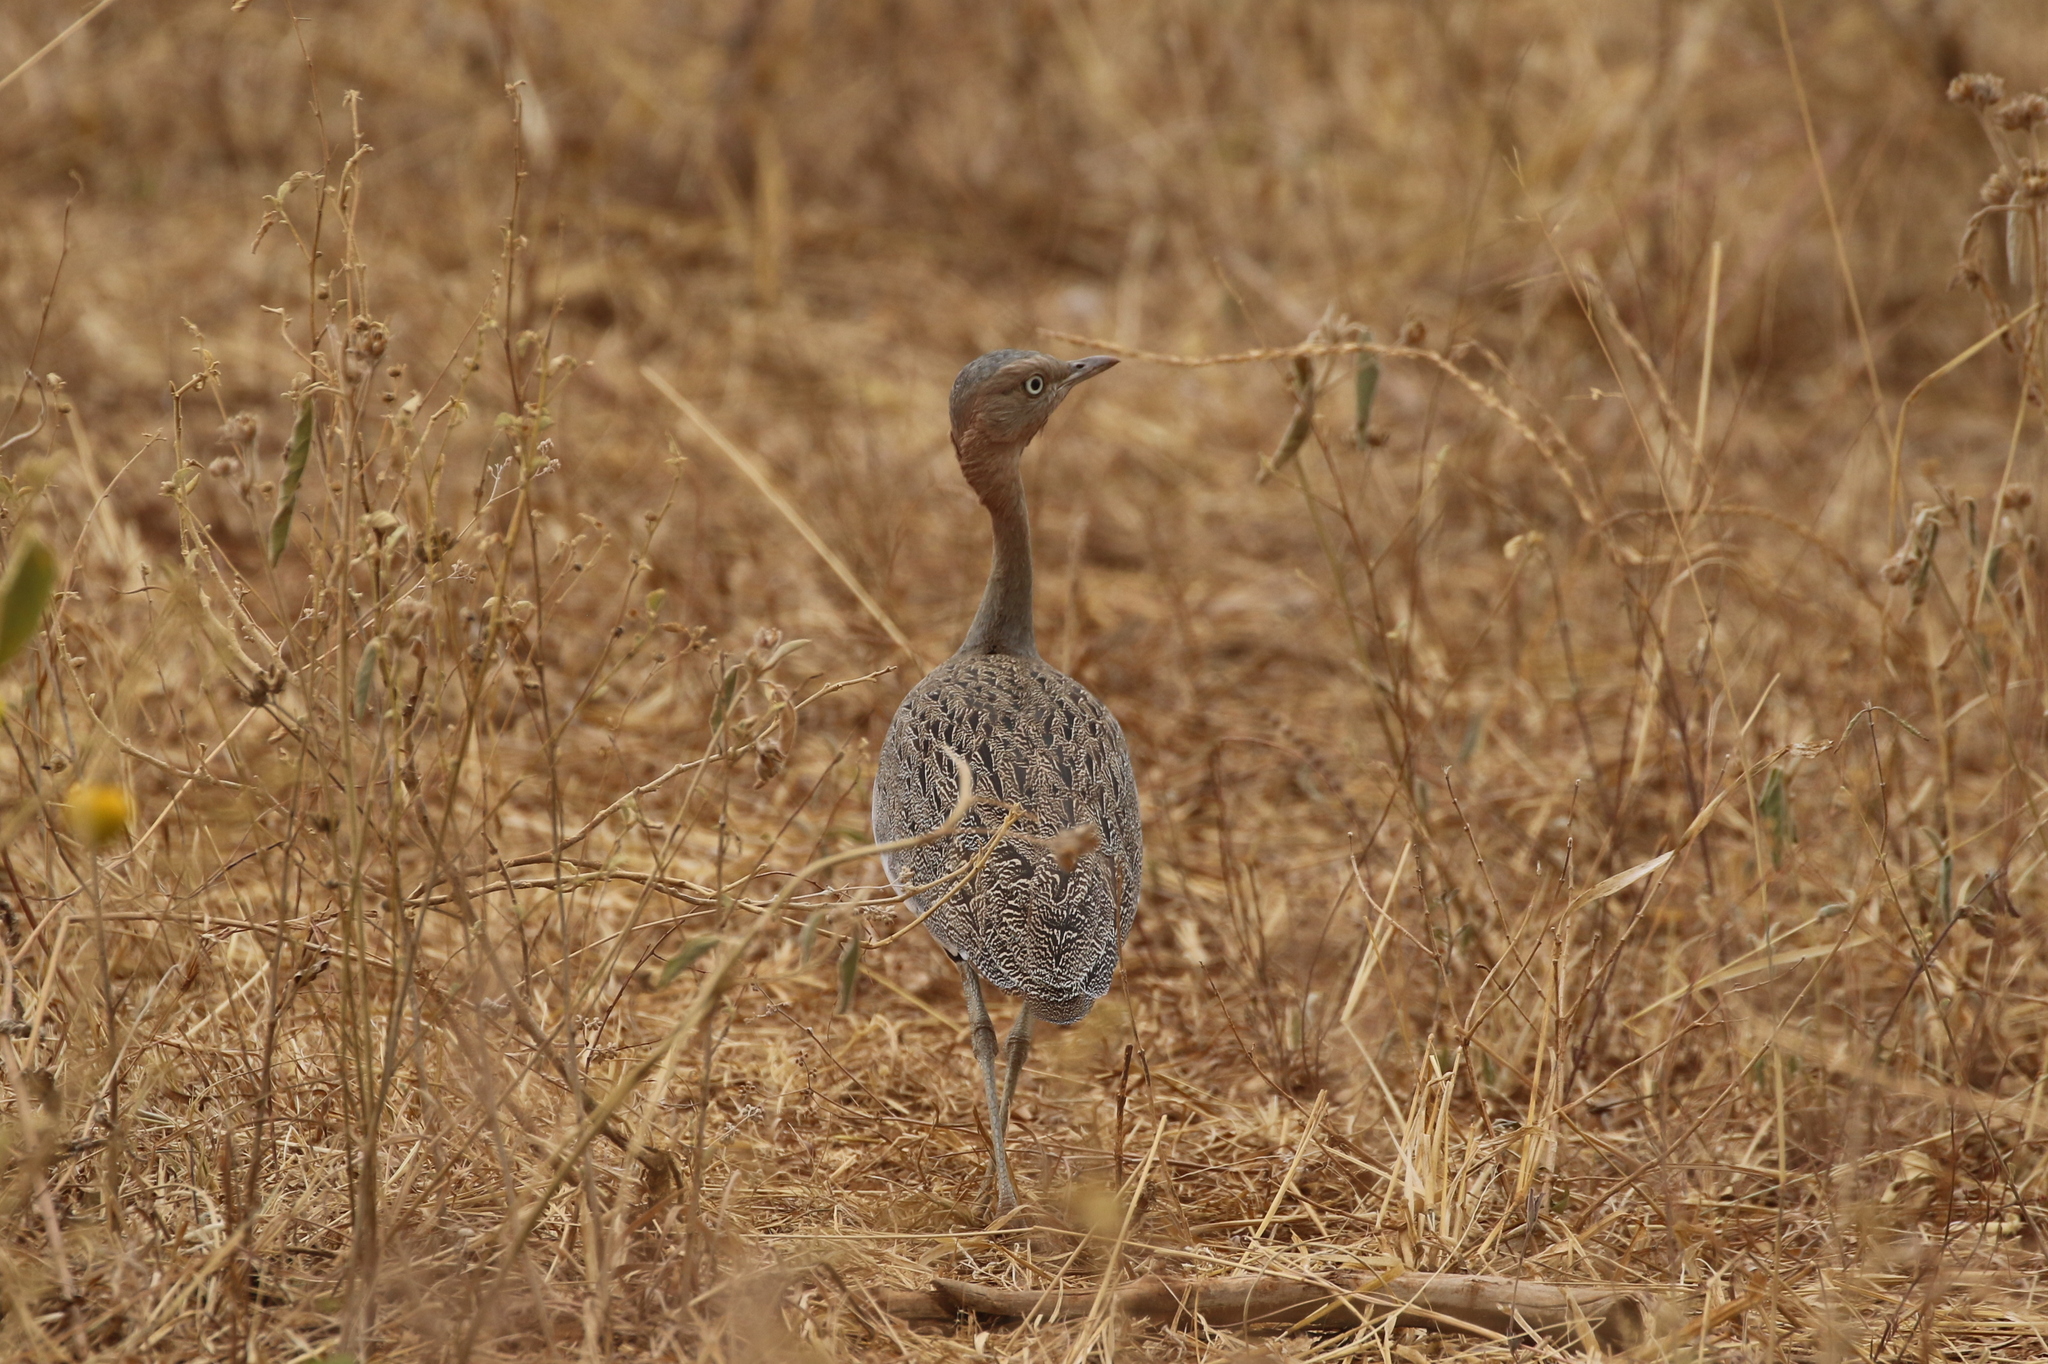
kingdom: Animalia
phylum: Chordata
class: Aves
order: Otidiformes
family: Otididae
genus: Lophotis
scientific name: Lophotis gindiana
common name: Buff-crested bustard
